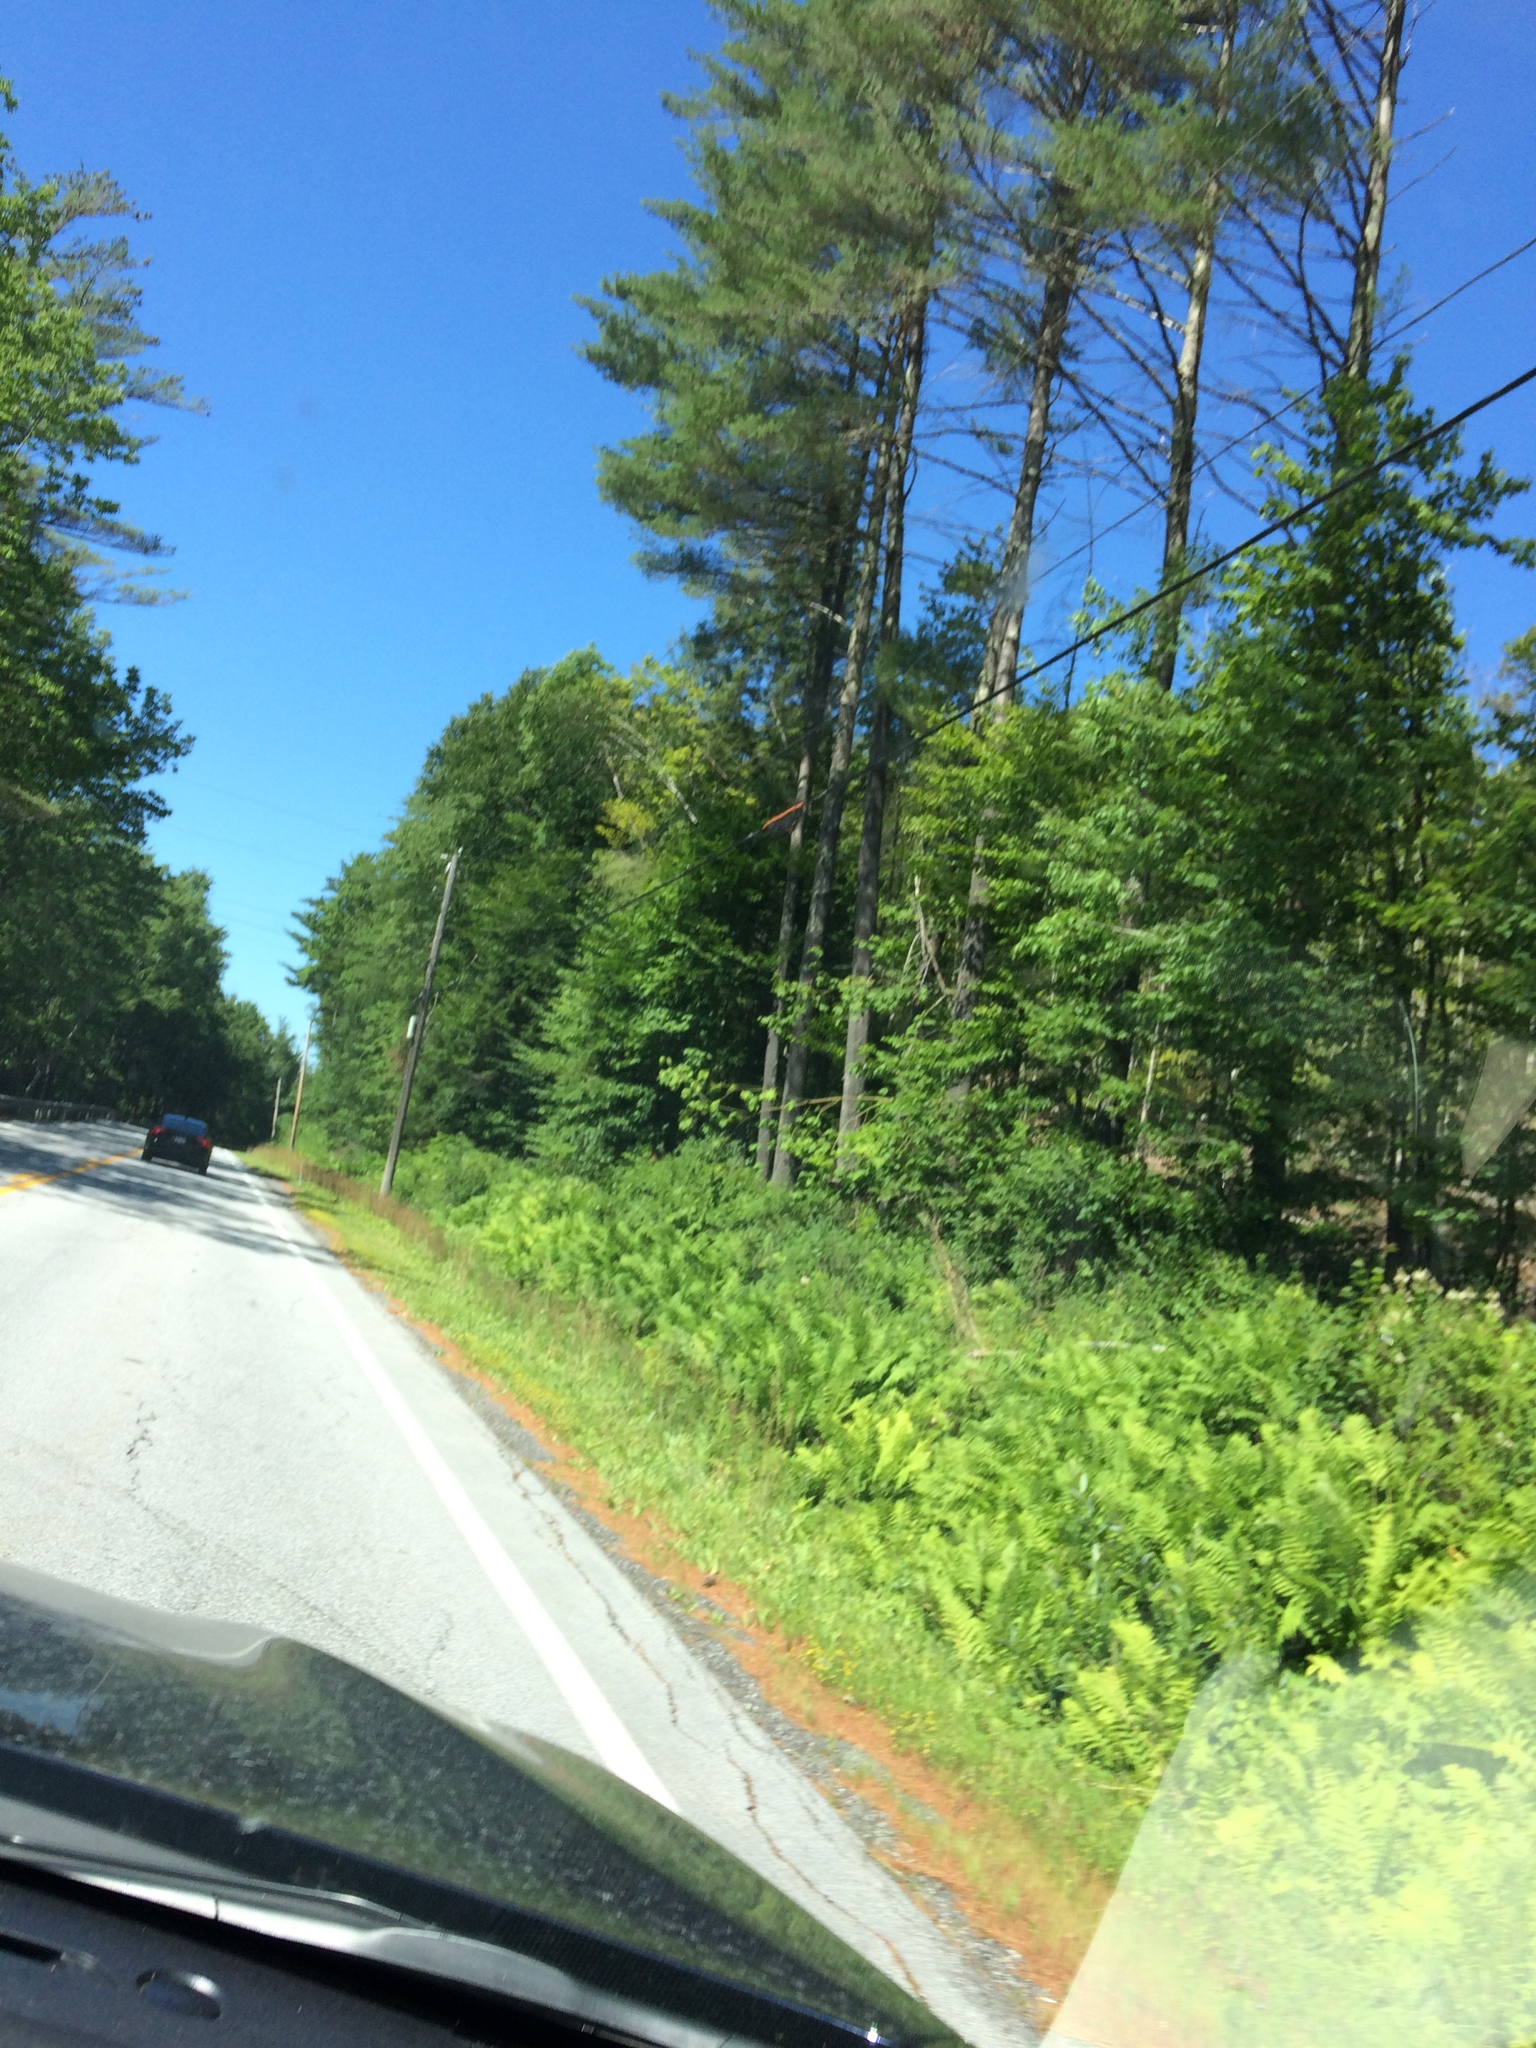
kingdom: Plantae
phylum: Tracheophyta
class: Pinopsida
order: Pinales
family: Pinaceae
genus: Pinus
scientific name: Pinus strobus
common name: Weymouth pine
